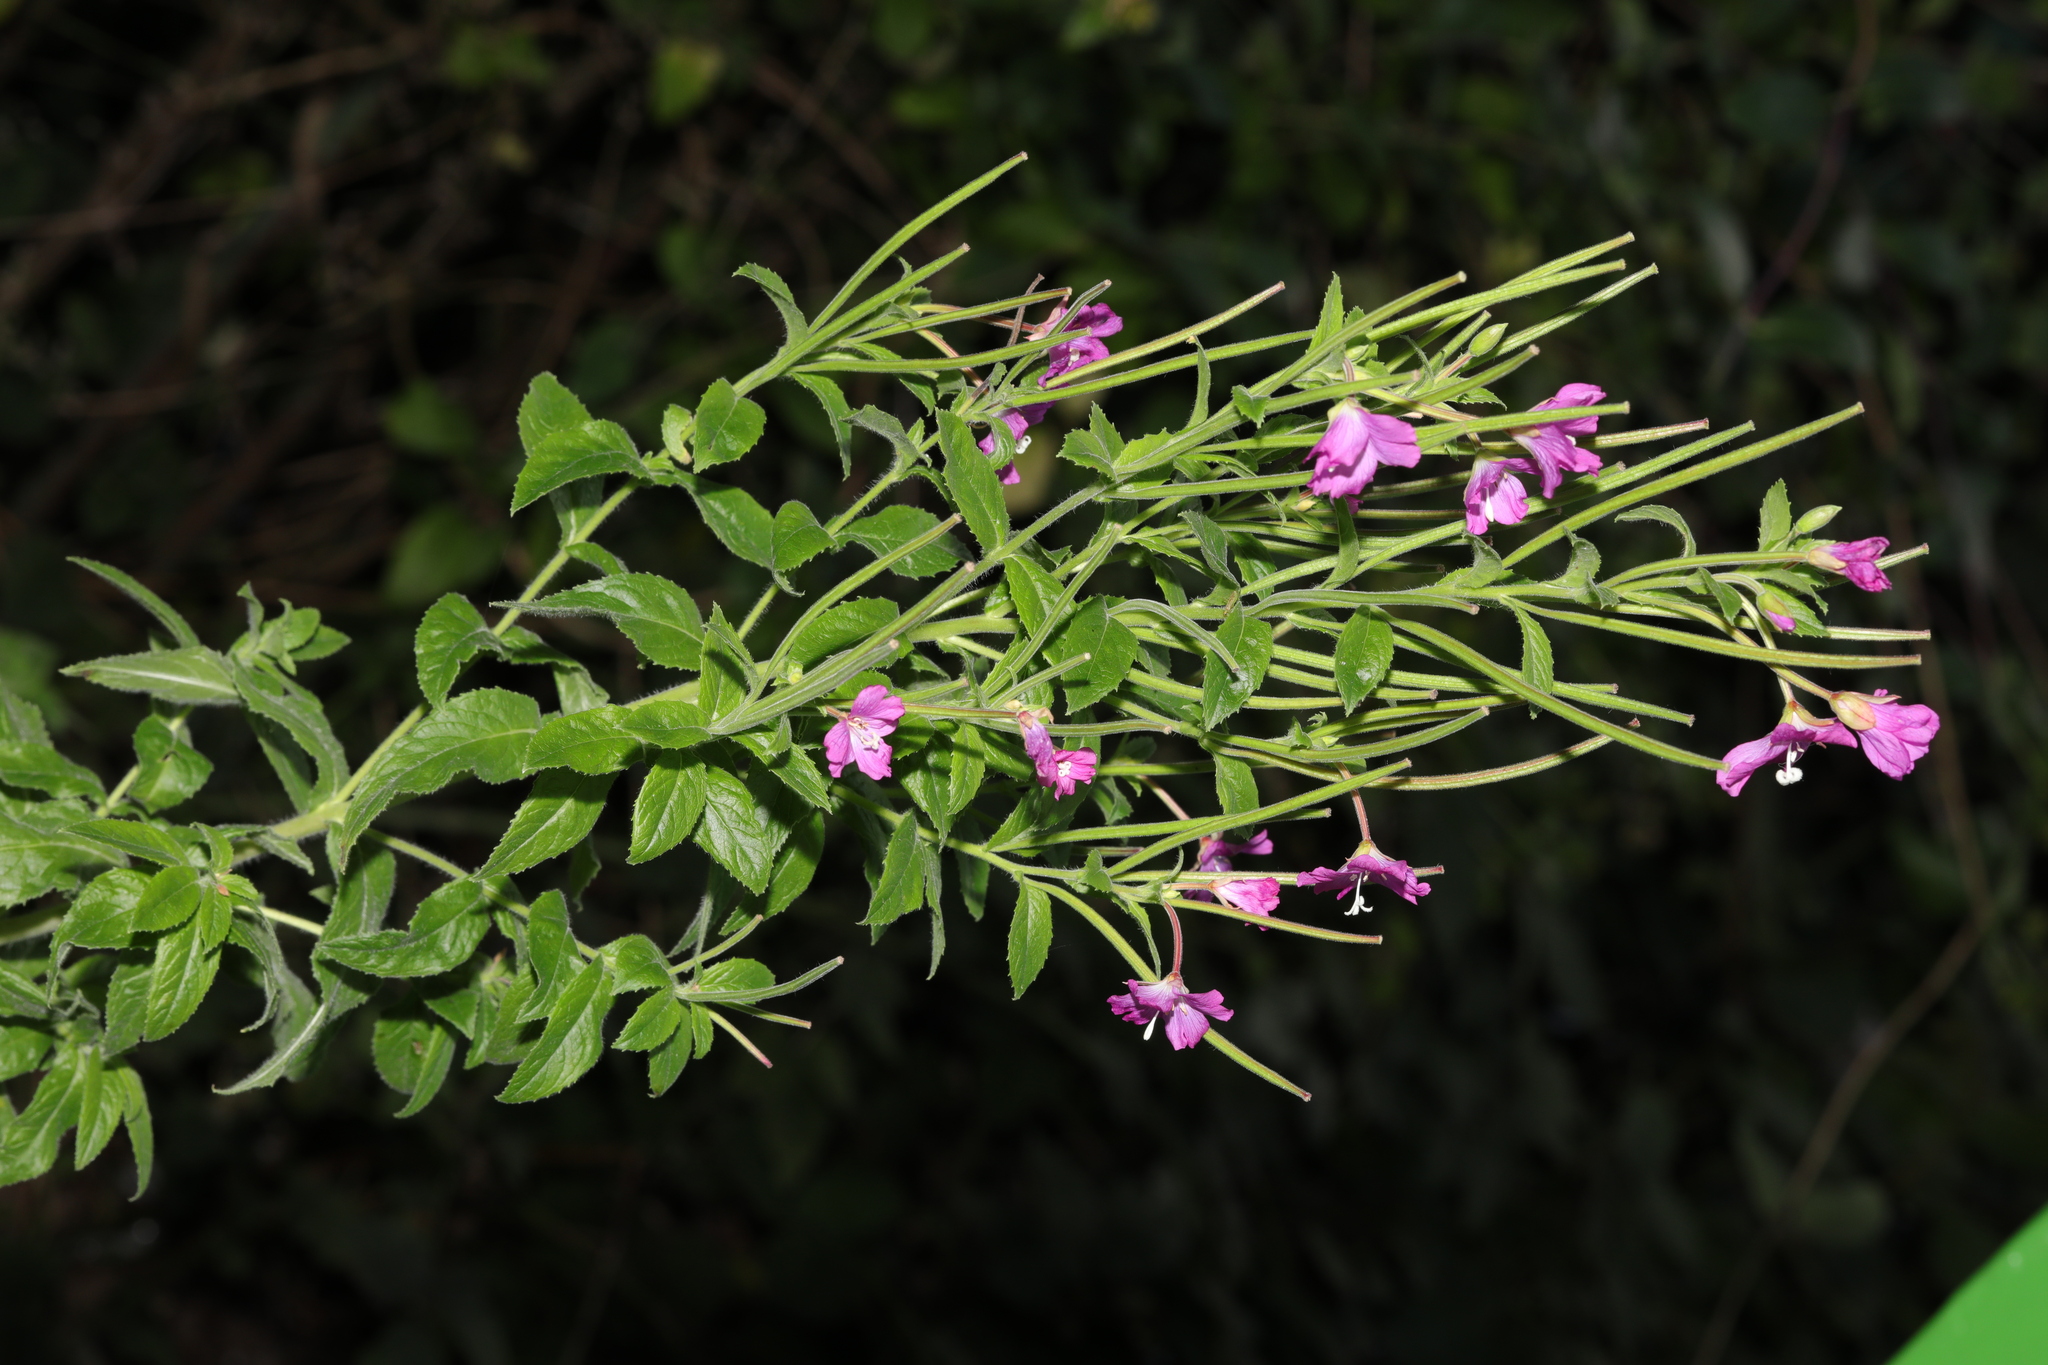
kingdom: Plantae
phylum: Tracheophyta
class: Magnoliopsida
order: Myrtales
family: Onagraceae
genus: Epilobium
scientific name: Epilobium hirsutum
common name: Great willowherb
